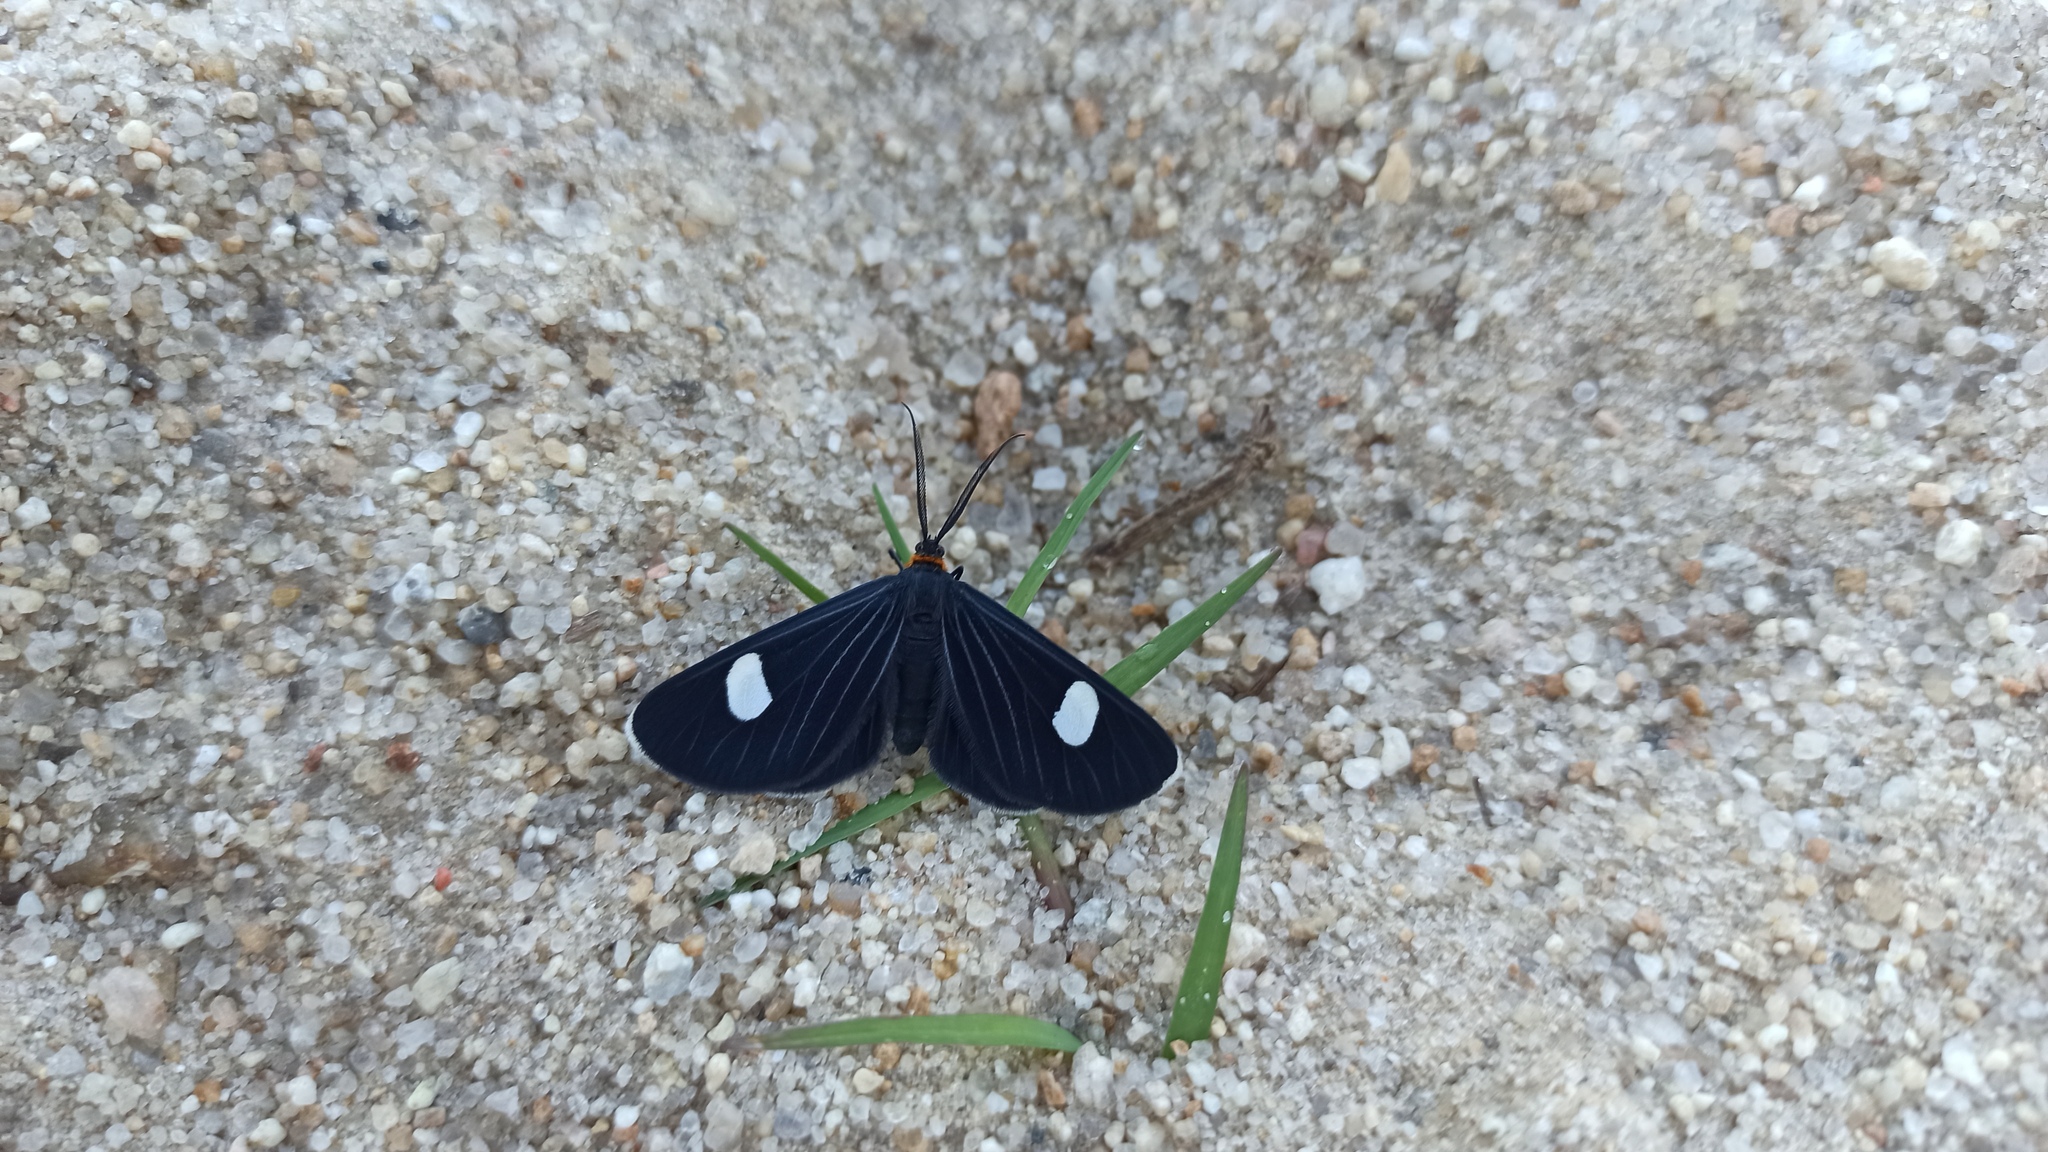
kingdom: Animalia
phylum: Arthropoda
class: Insecta
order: Lepidoptera
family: Geometridae
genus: Melanchroia
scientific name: Melanchroia aterea
